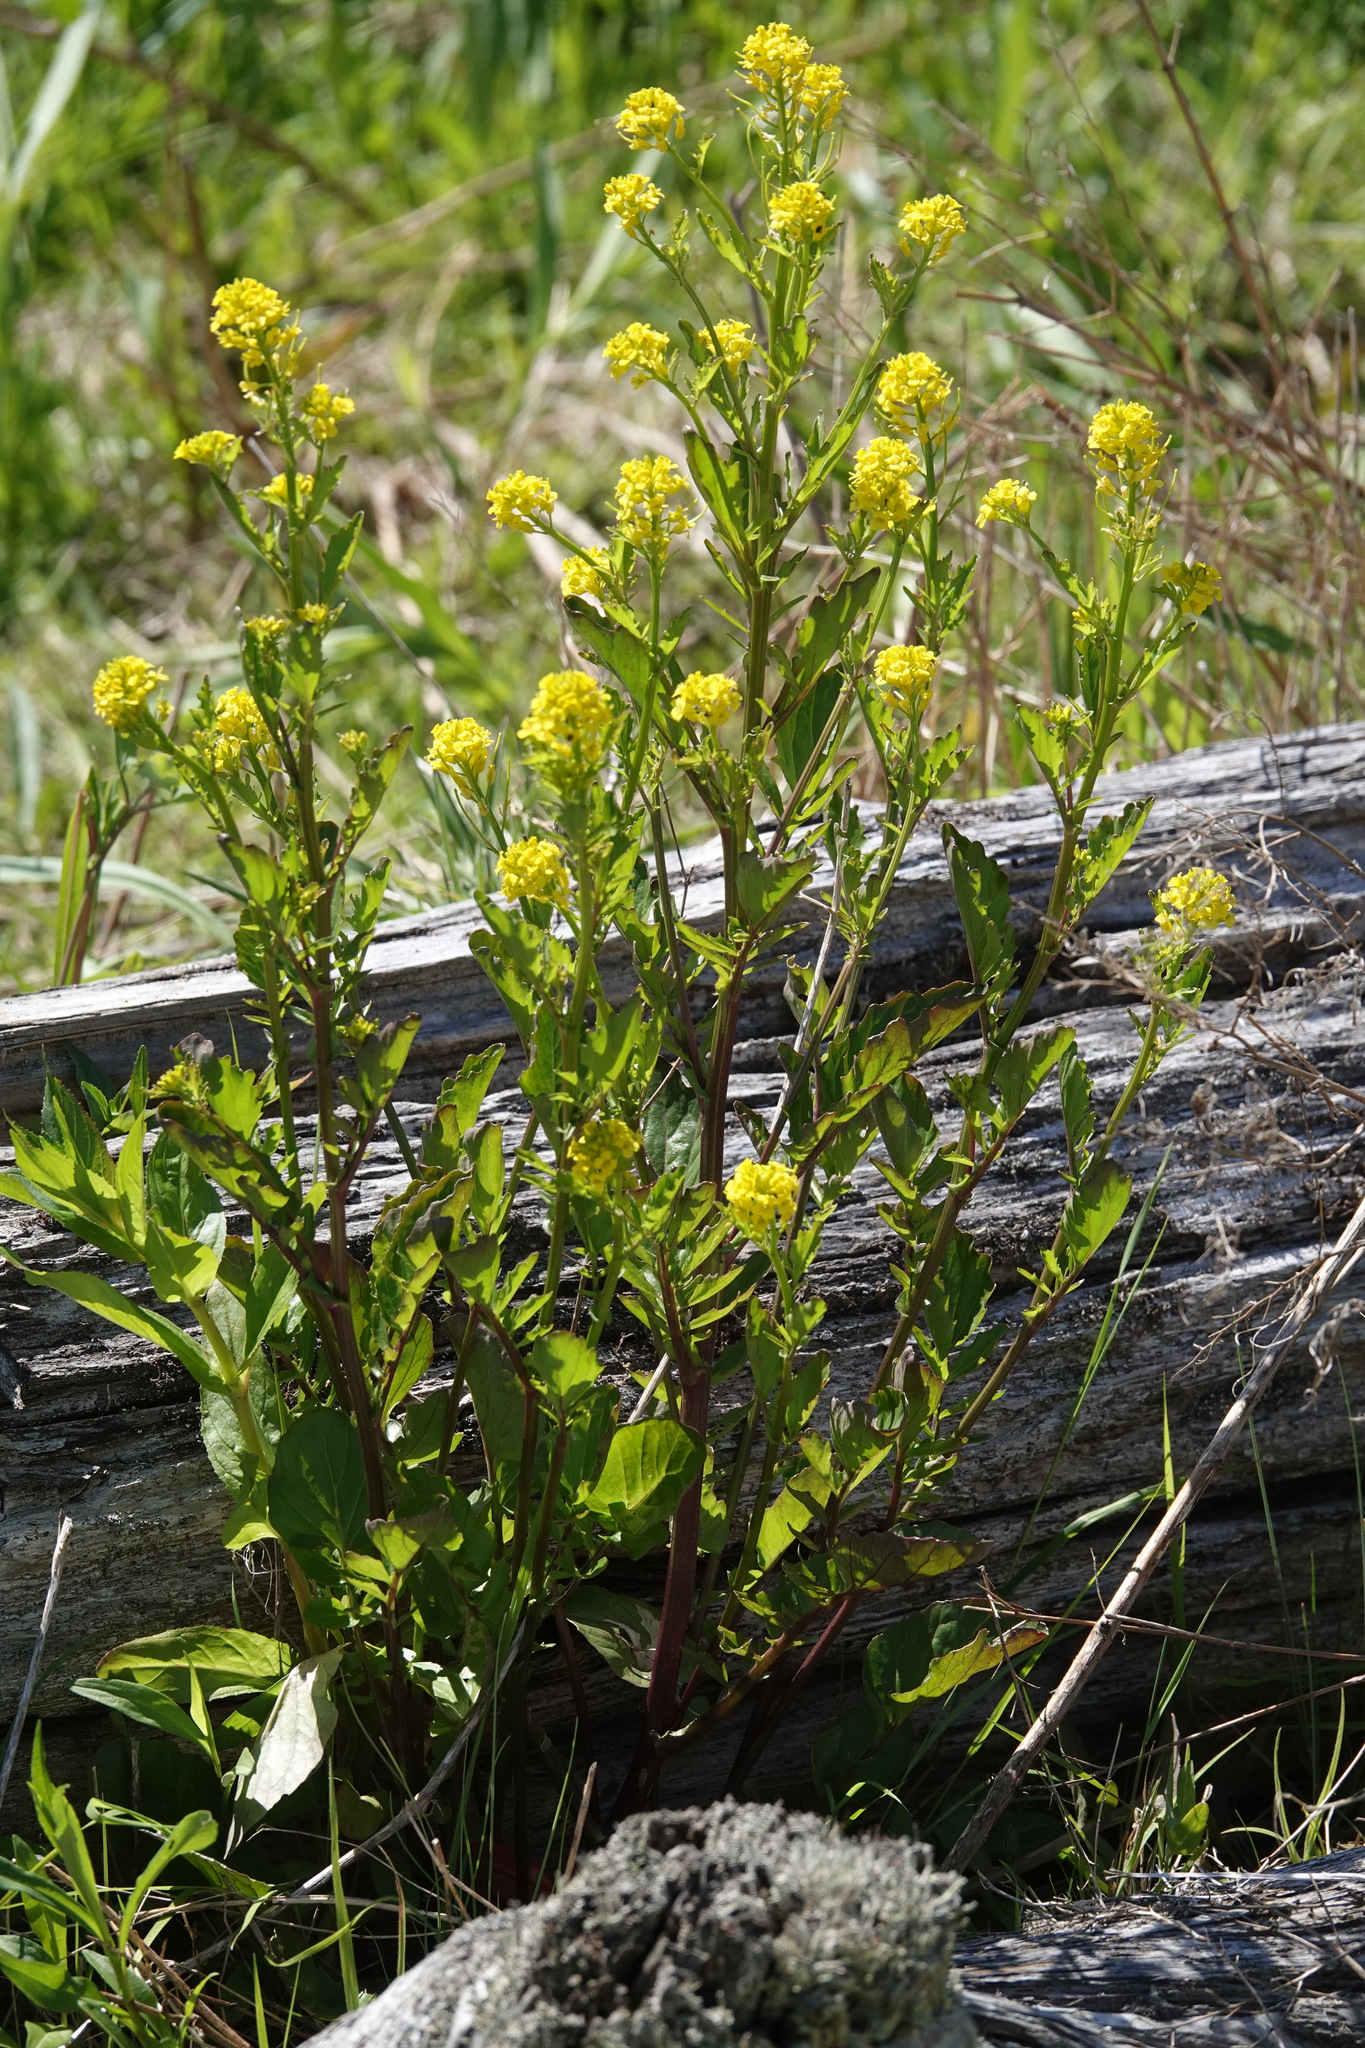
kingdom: Plantae
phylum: Tracheophyta
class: Magnoliopsida
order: Brassicales
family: Brassicaceae
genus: Barbarea
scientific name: Barbarea vulgaris
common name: Cressy-greens
